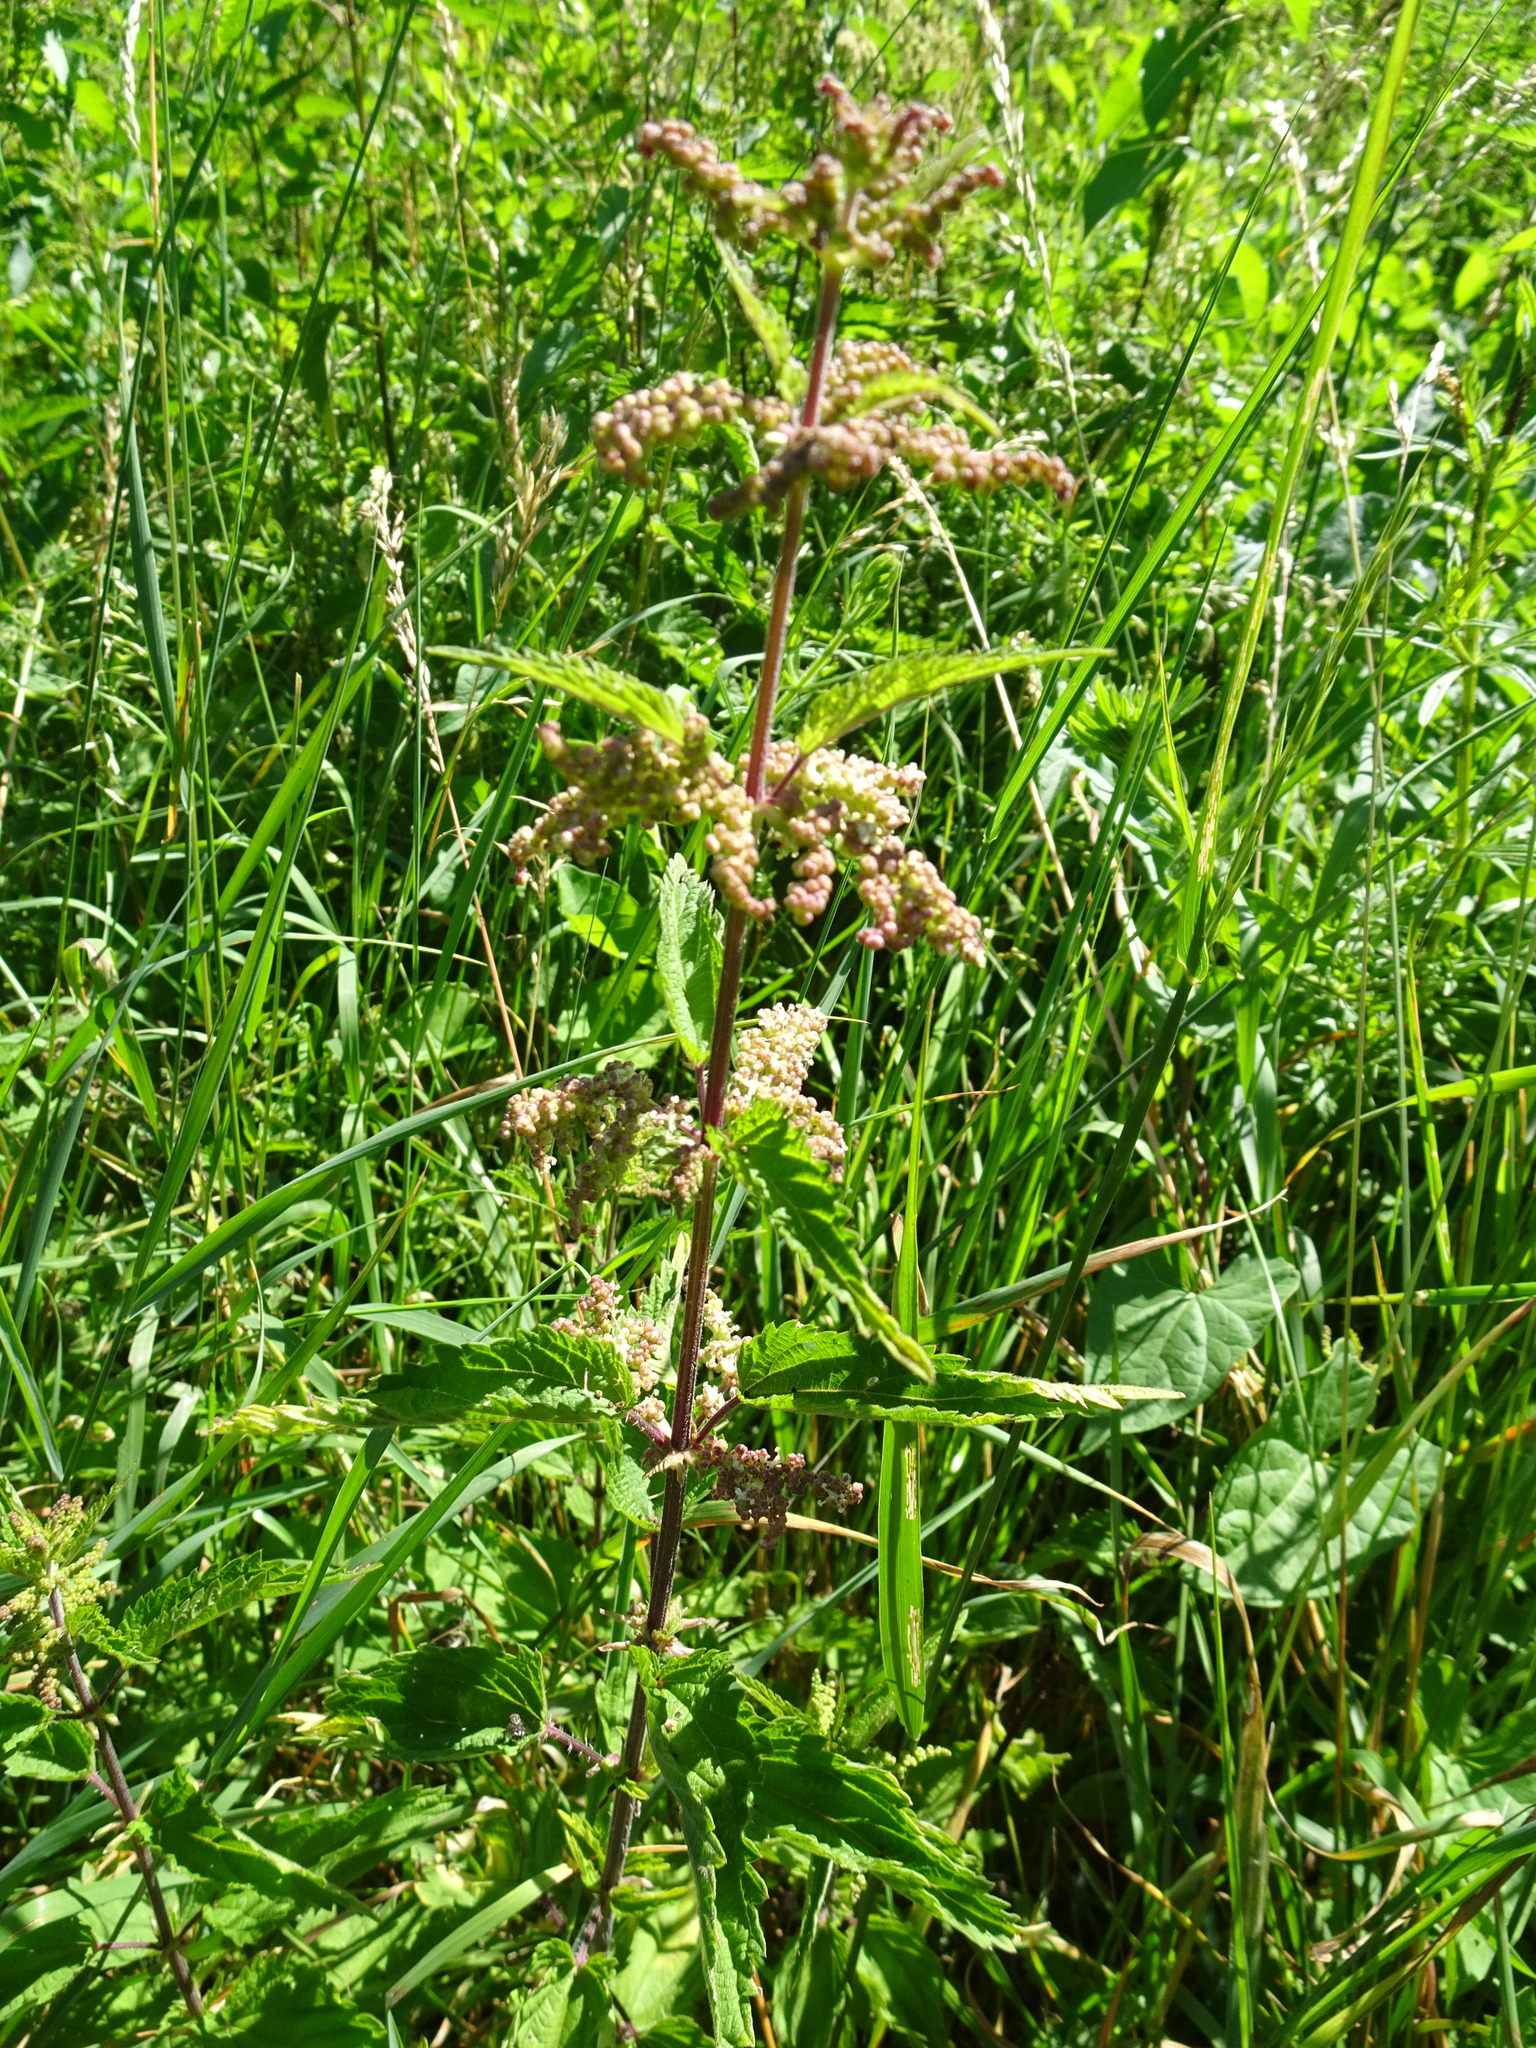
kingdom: Plantae
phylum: Tracheophyta
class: Magnoliopsida
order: Rosales
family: Urticaceae
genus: Urtica
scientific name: Urtica dioica
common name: Common nettle
